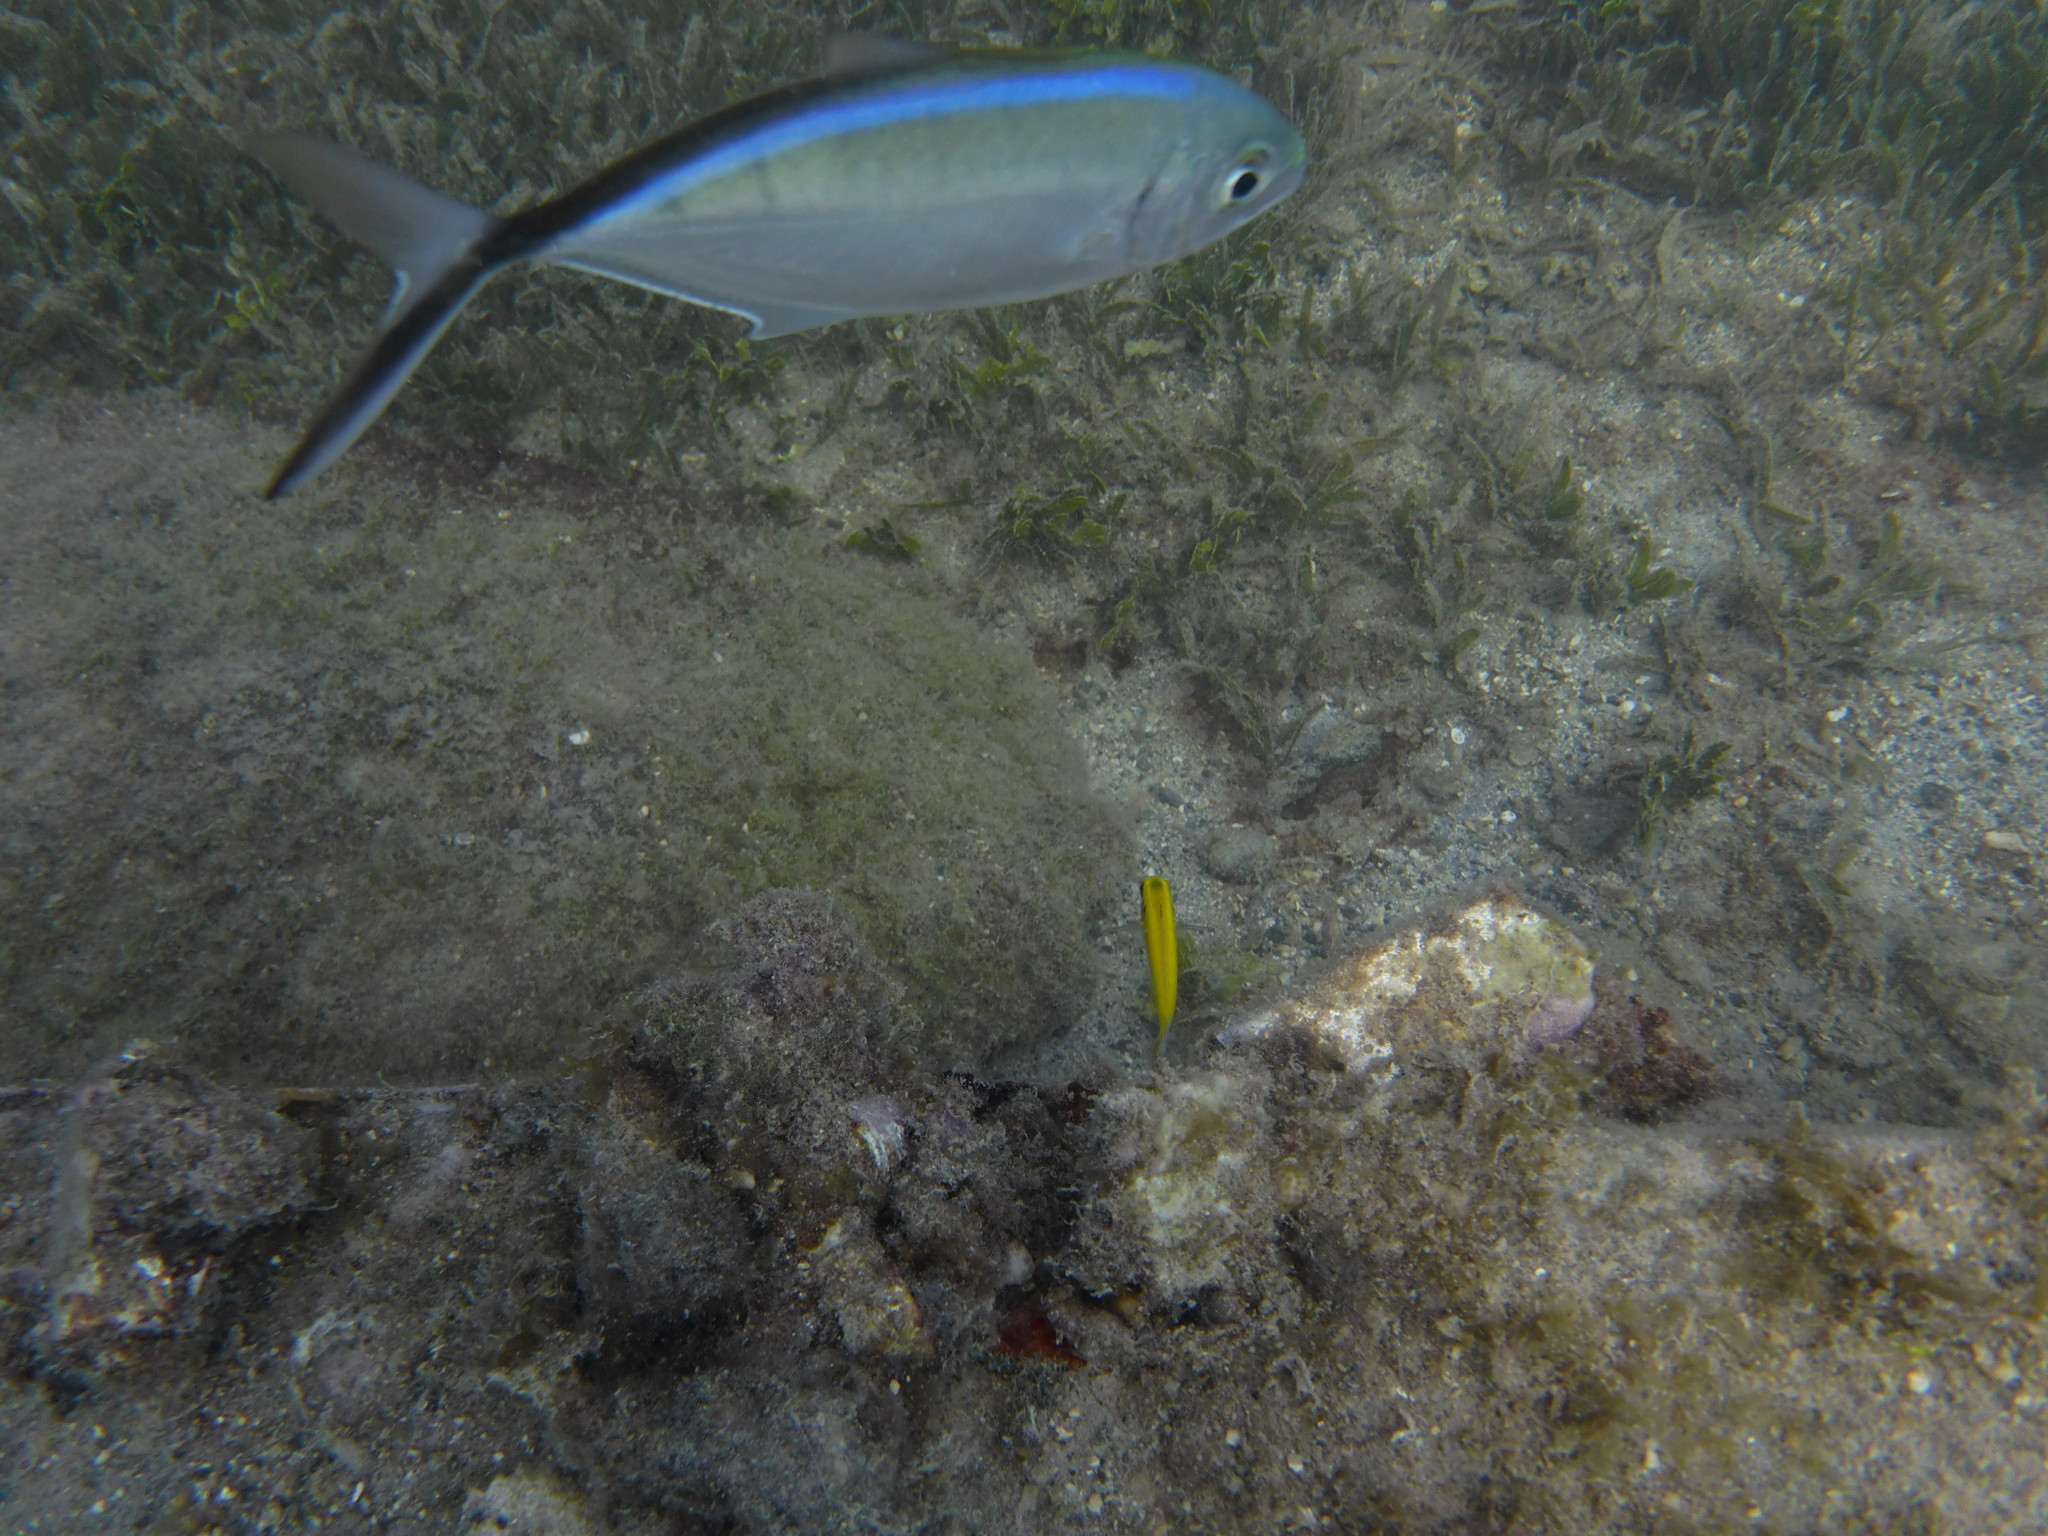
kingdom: Animalia
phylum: Chordata
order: Perciformes
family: Carangidae
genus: Caranx
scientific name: Caranx ruber
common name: Bar jack
